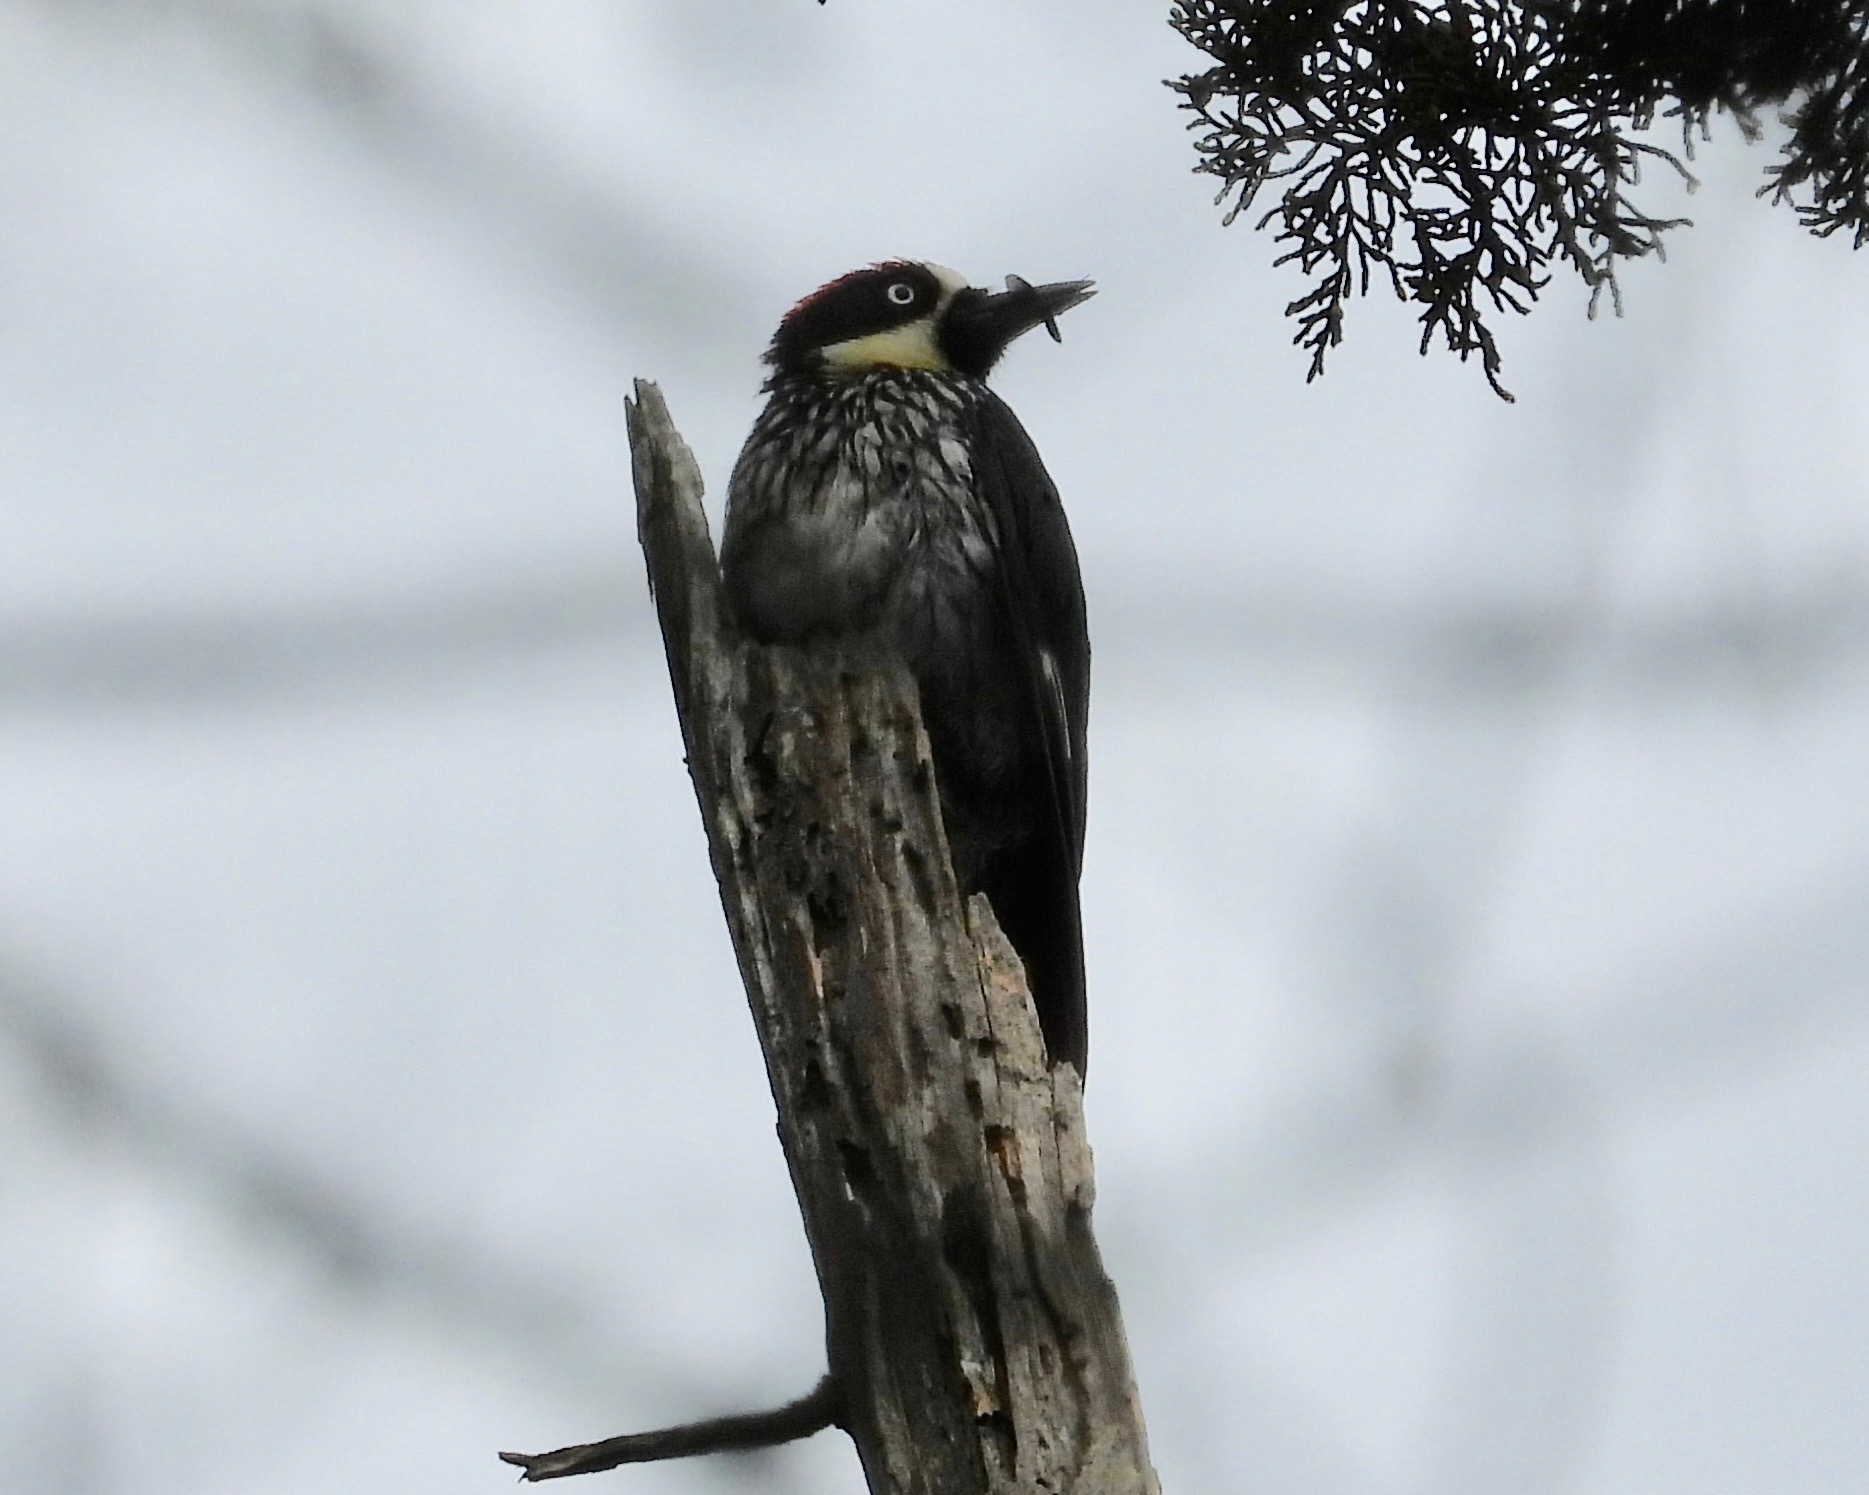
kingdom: Animalia
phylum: Chordata
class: Aves
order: Piciformes
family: Picidae
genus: Melanerpes
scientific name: Melanerpes formicivorus
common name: Acorn woodpecker
